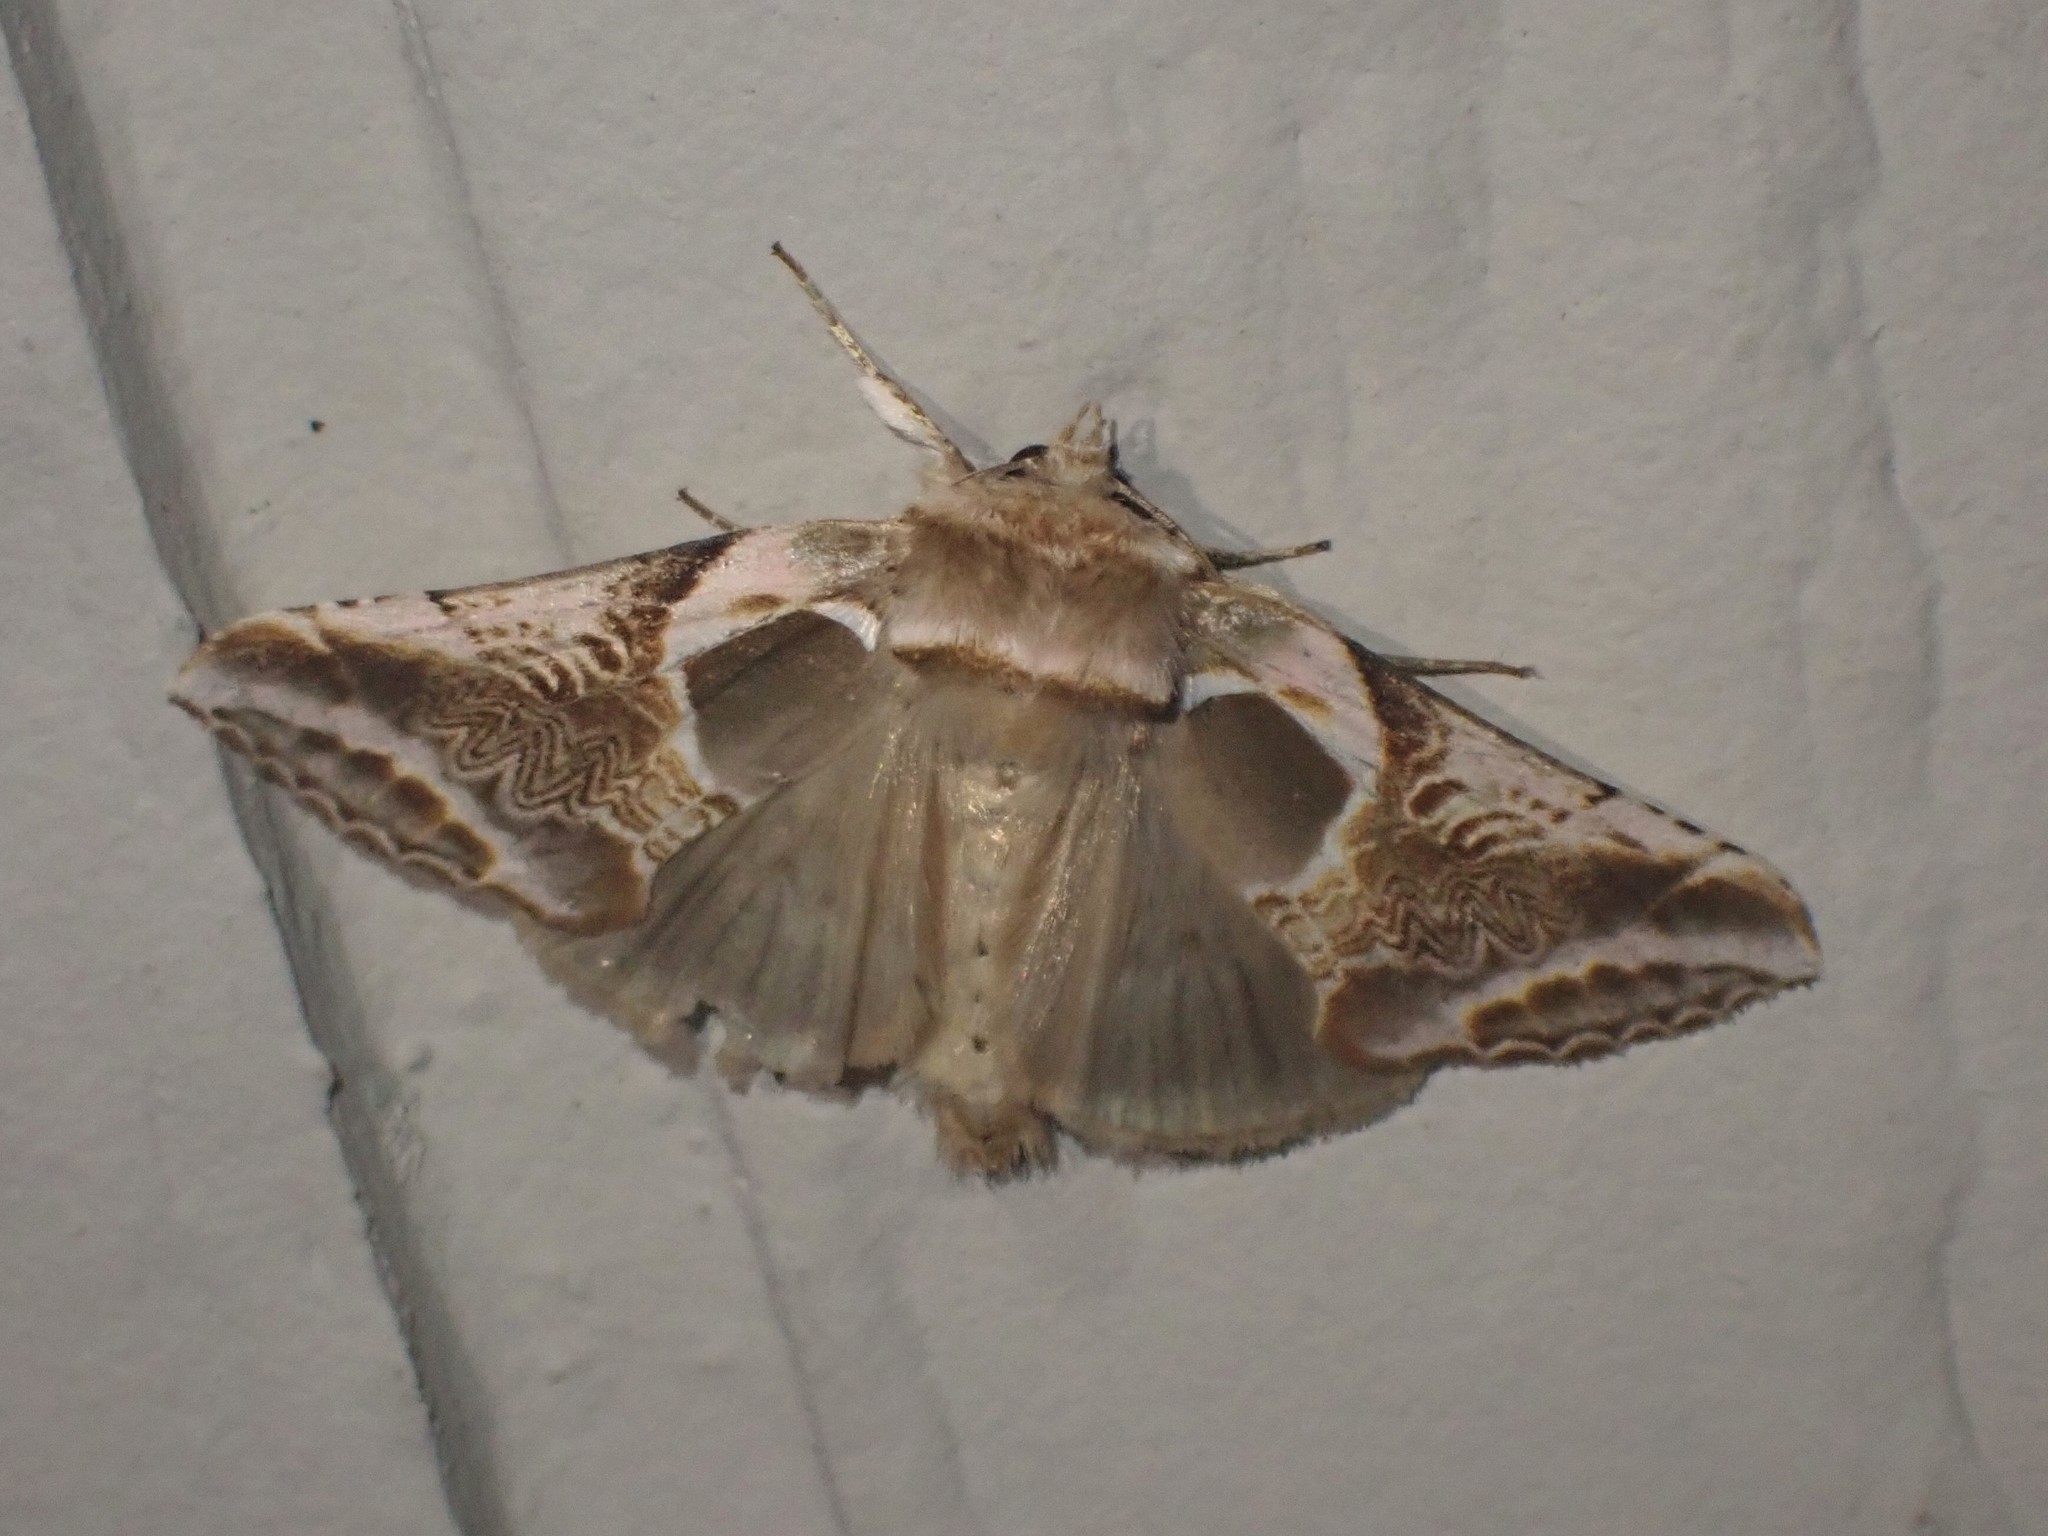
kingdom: Animalia
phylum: Arthropoda
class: Insecta
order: Lepidoptera
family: Drepanidae
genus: Habrosyne
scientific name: Habrosyne scripta
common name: Lettered habrosyne moth
